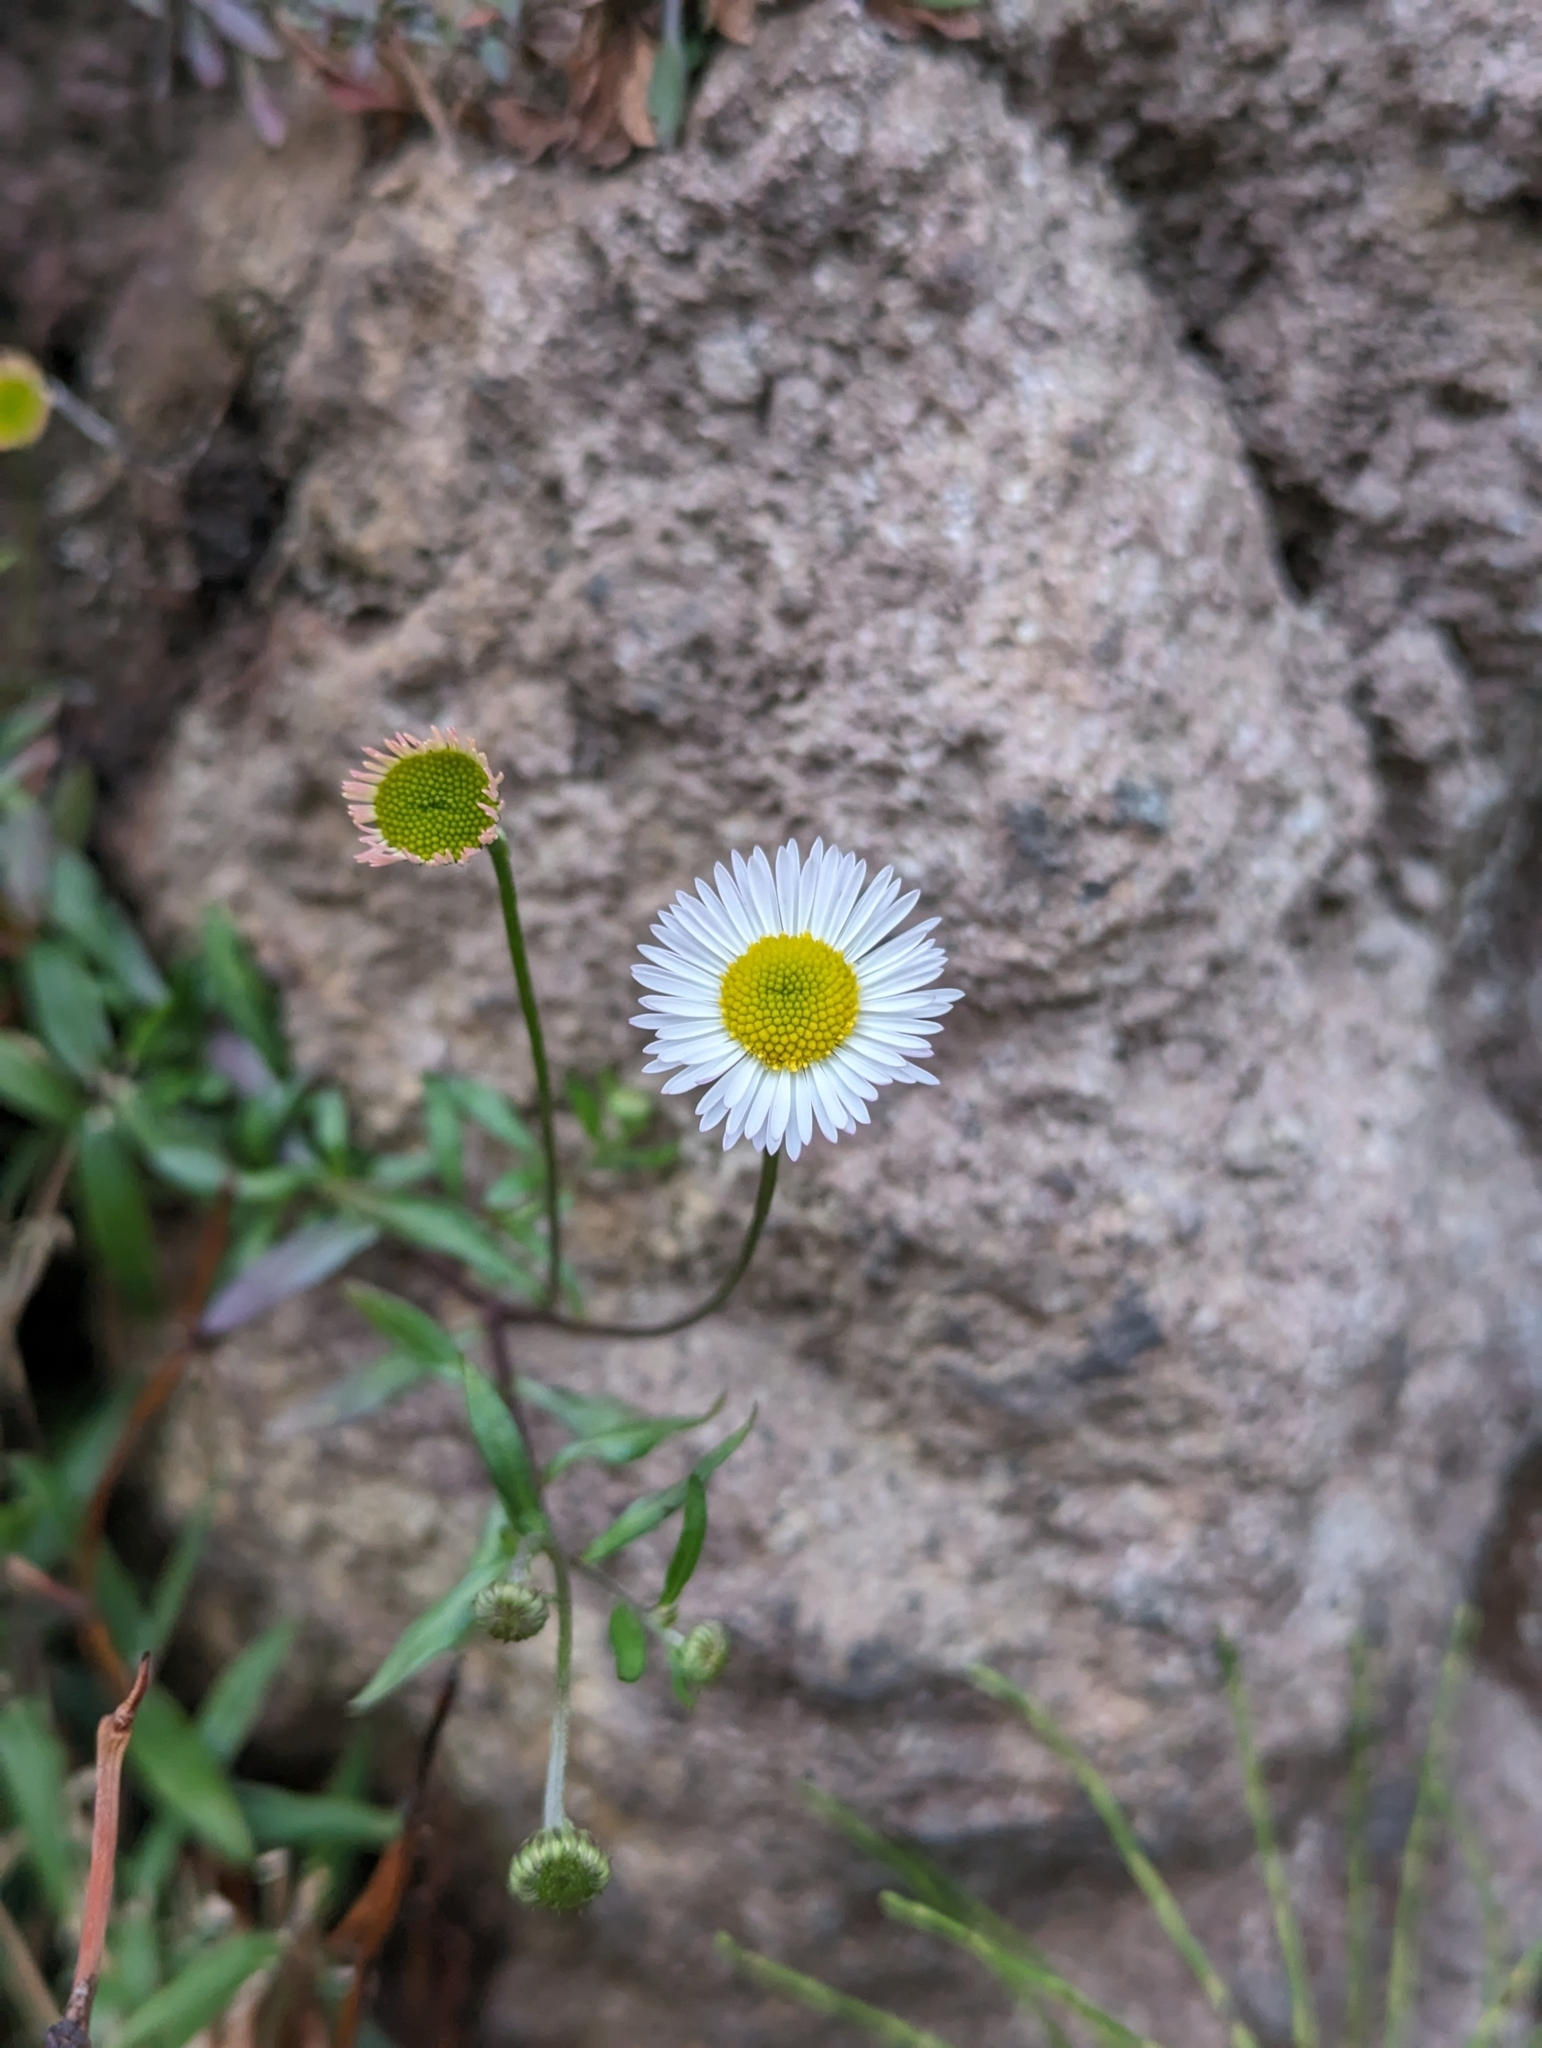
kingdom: Plantae
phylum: Tracheophyta
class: Magnoliopsida
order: Asterales
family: Asteraceae
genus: Erigeron
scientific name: Erigeron karvinskianus
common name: Mexican fleabane
